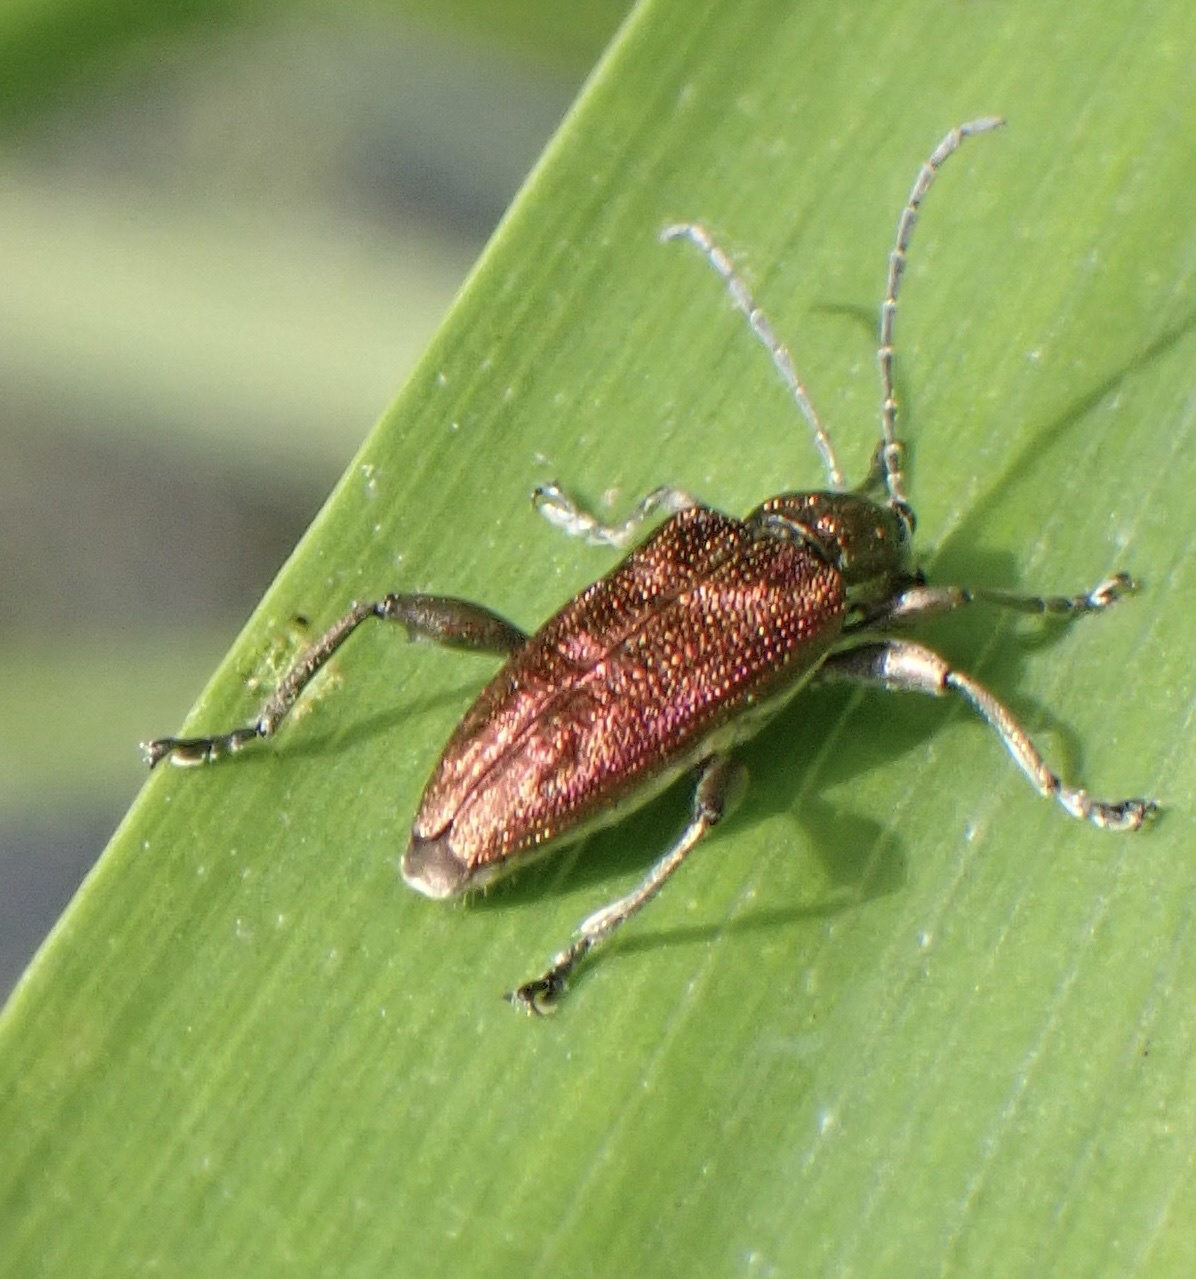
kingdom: Animalia
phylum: Arthropoda
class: Insecta
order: Coleoptera
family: Chrysomelidae
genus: Donacia
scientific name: Donacia marginata
